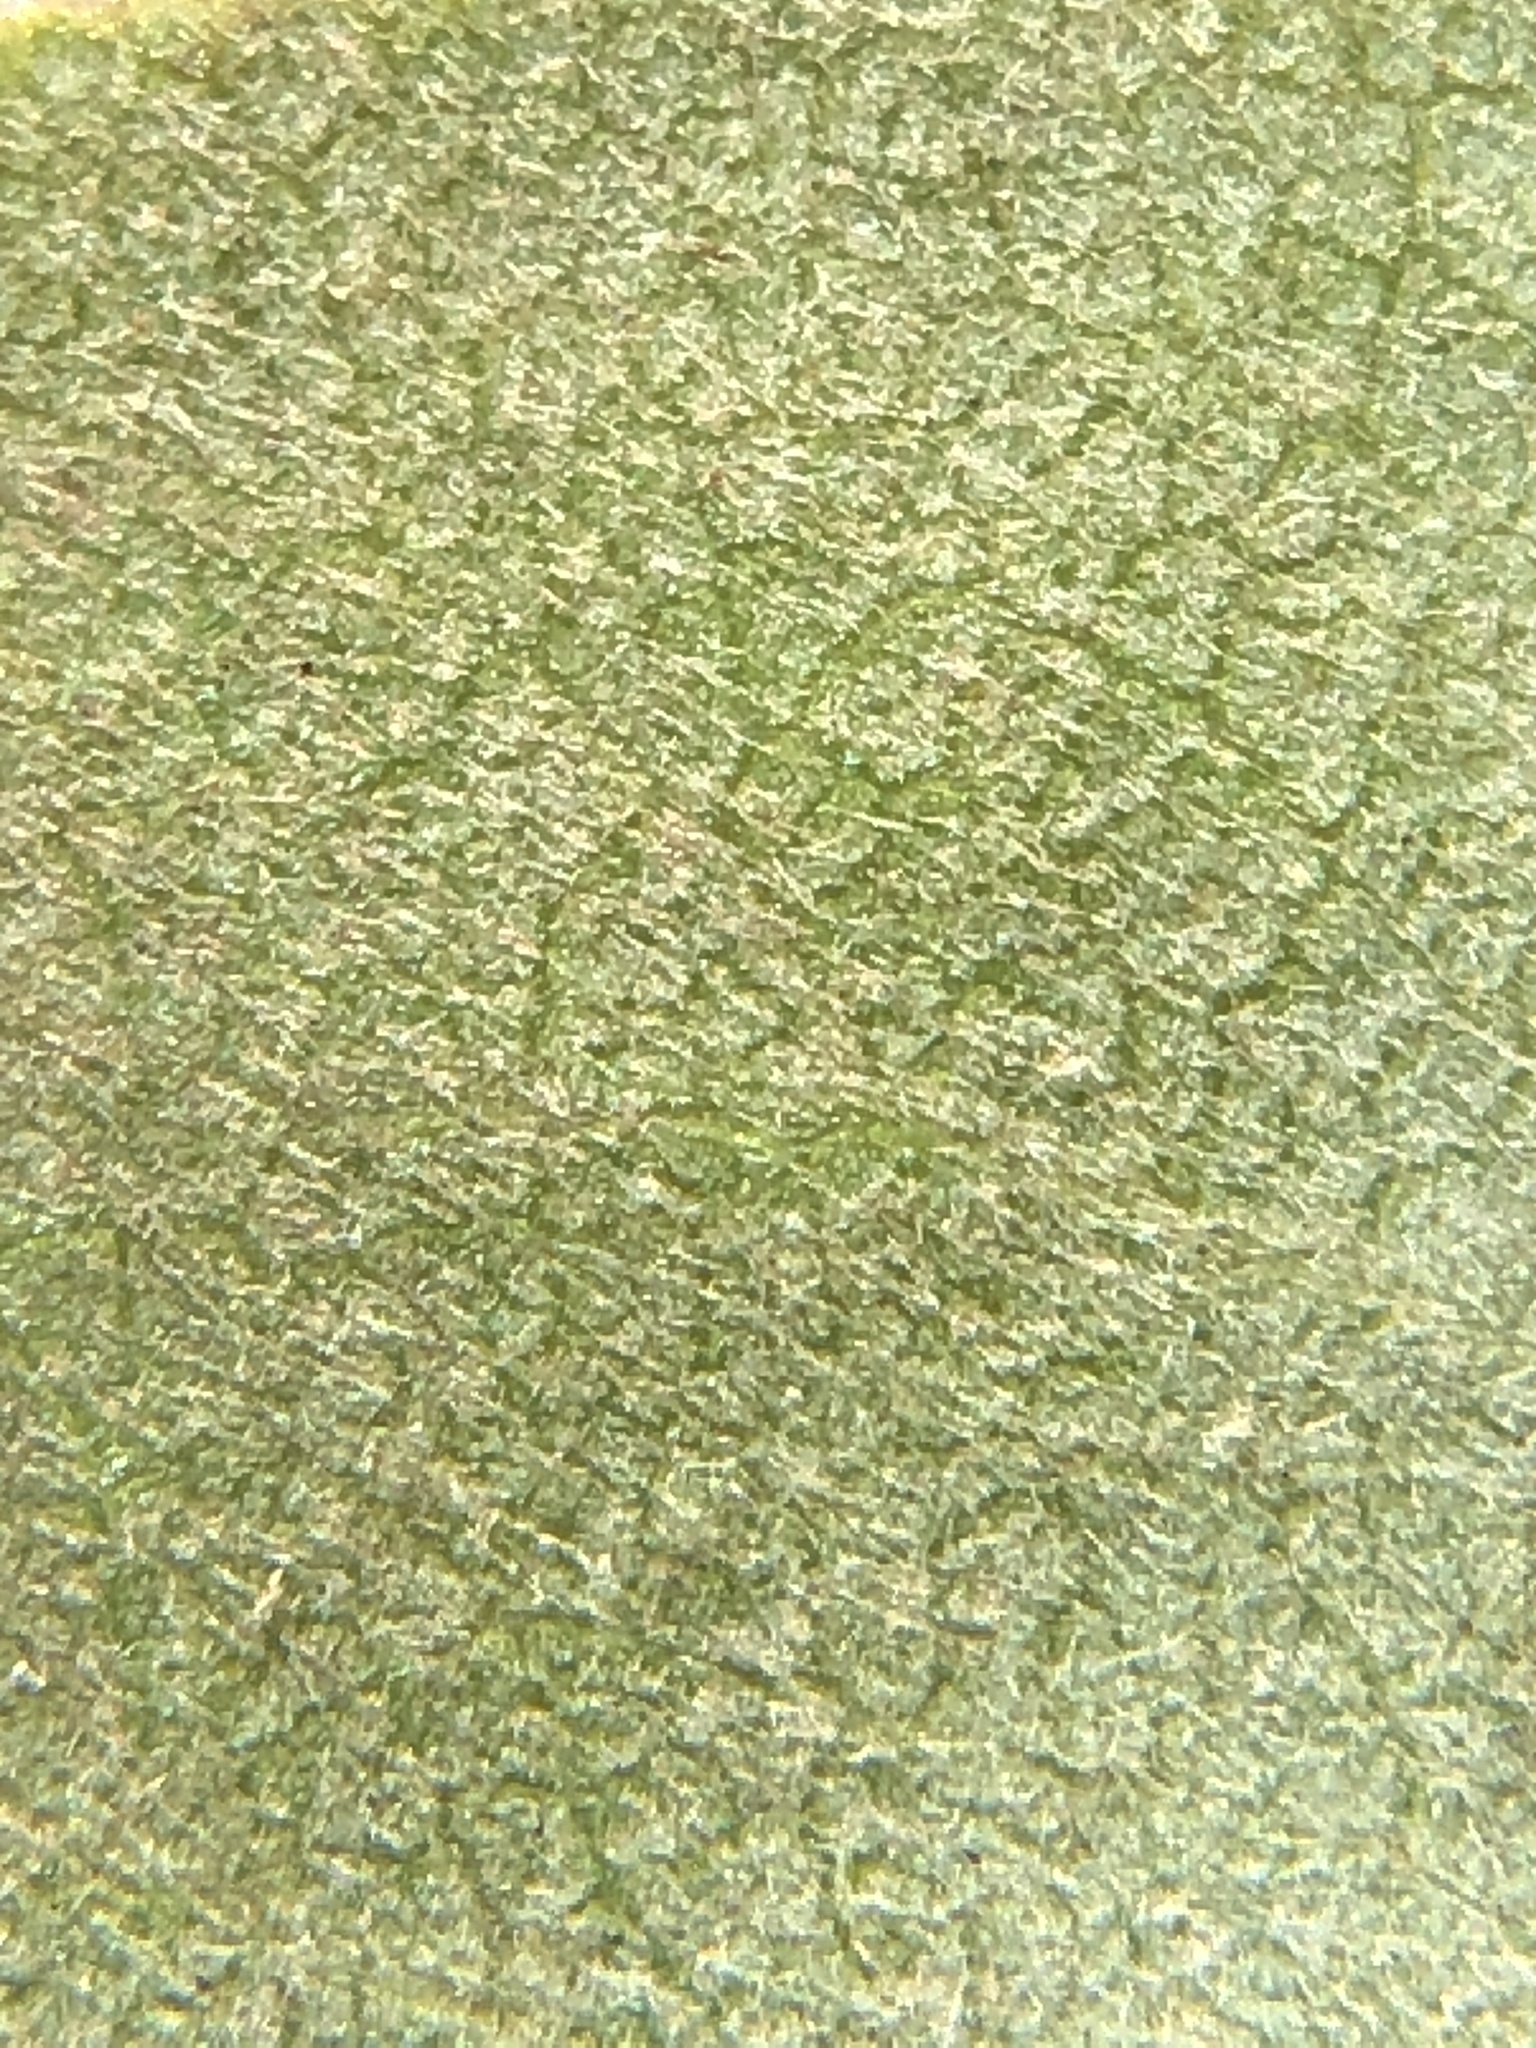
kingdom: Plantae
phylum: Tracheophyta
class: Magnoliopsida
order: Ericales
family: Ericaceae
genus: Arctostaphylos
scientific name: Arctostaphylos obispoensis
